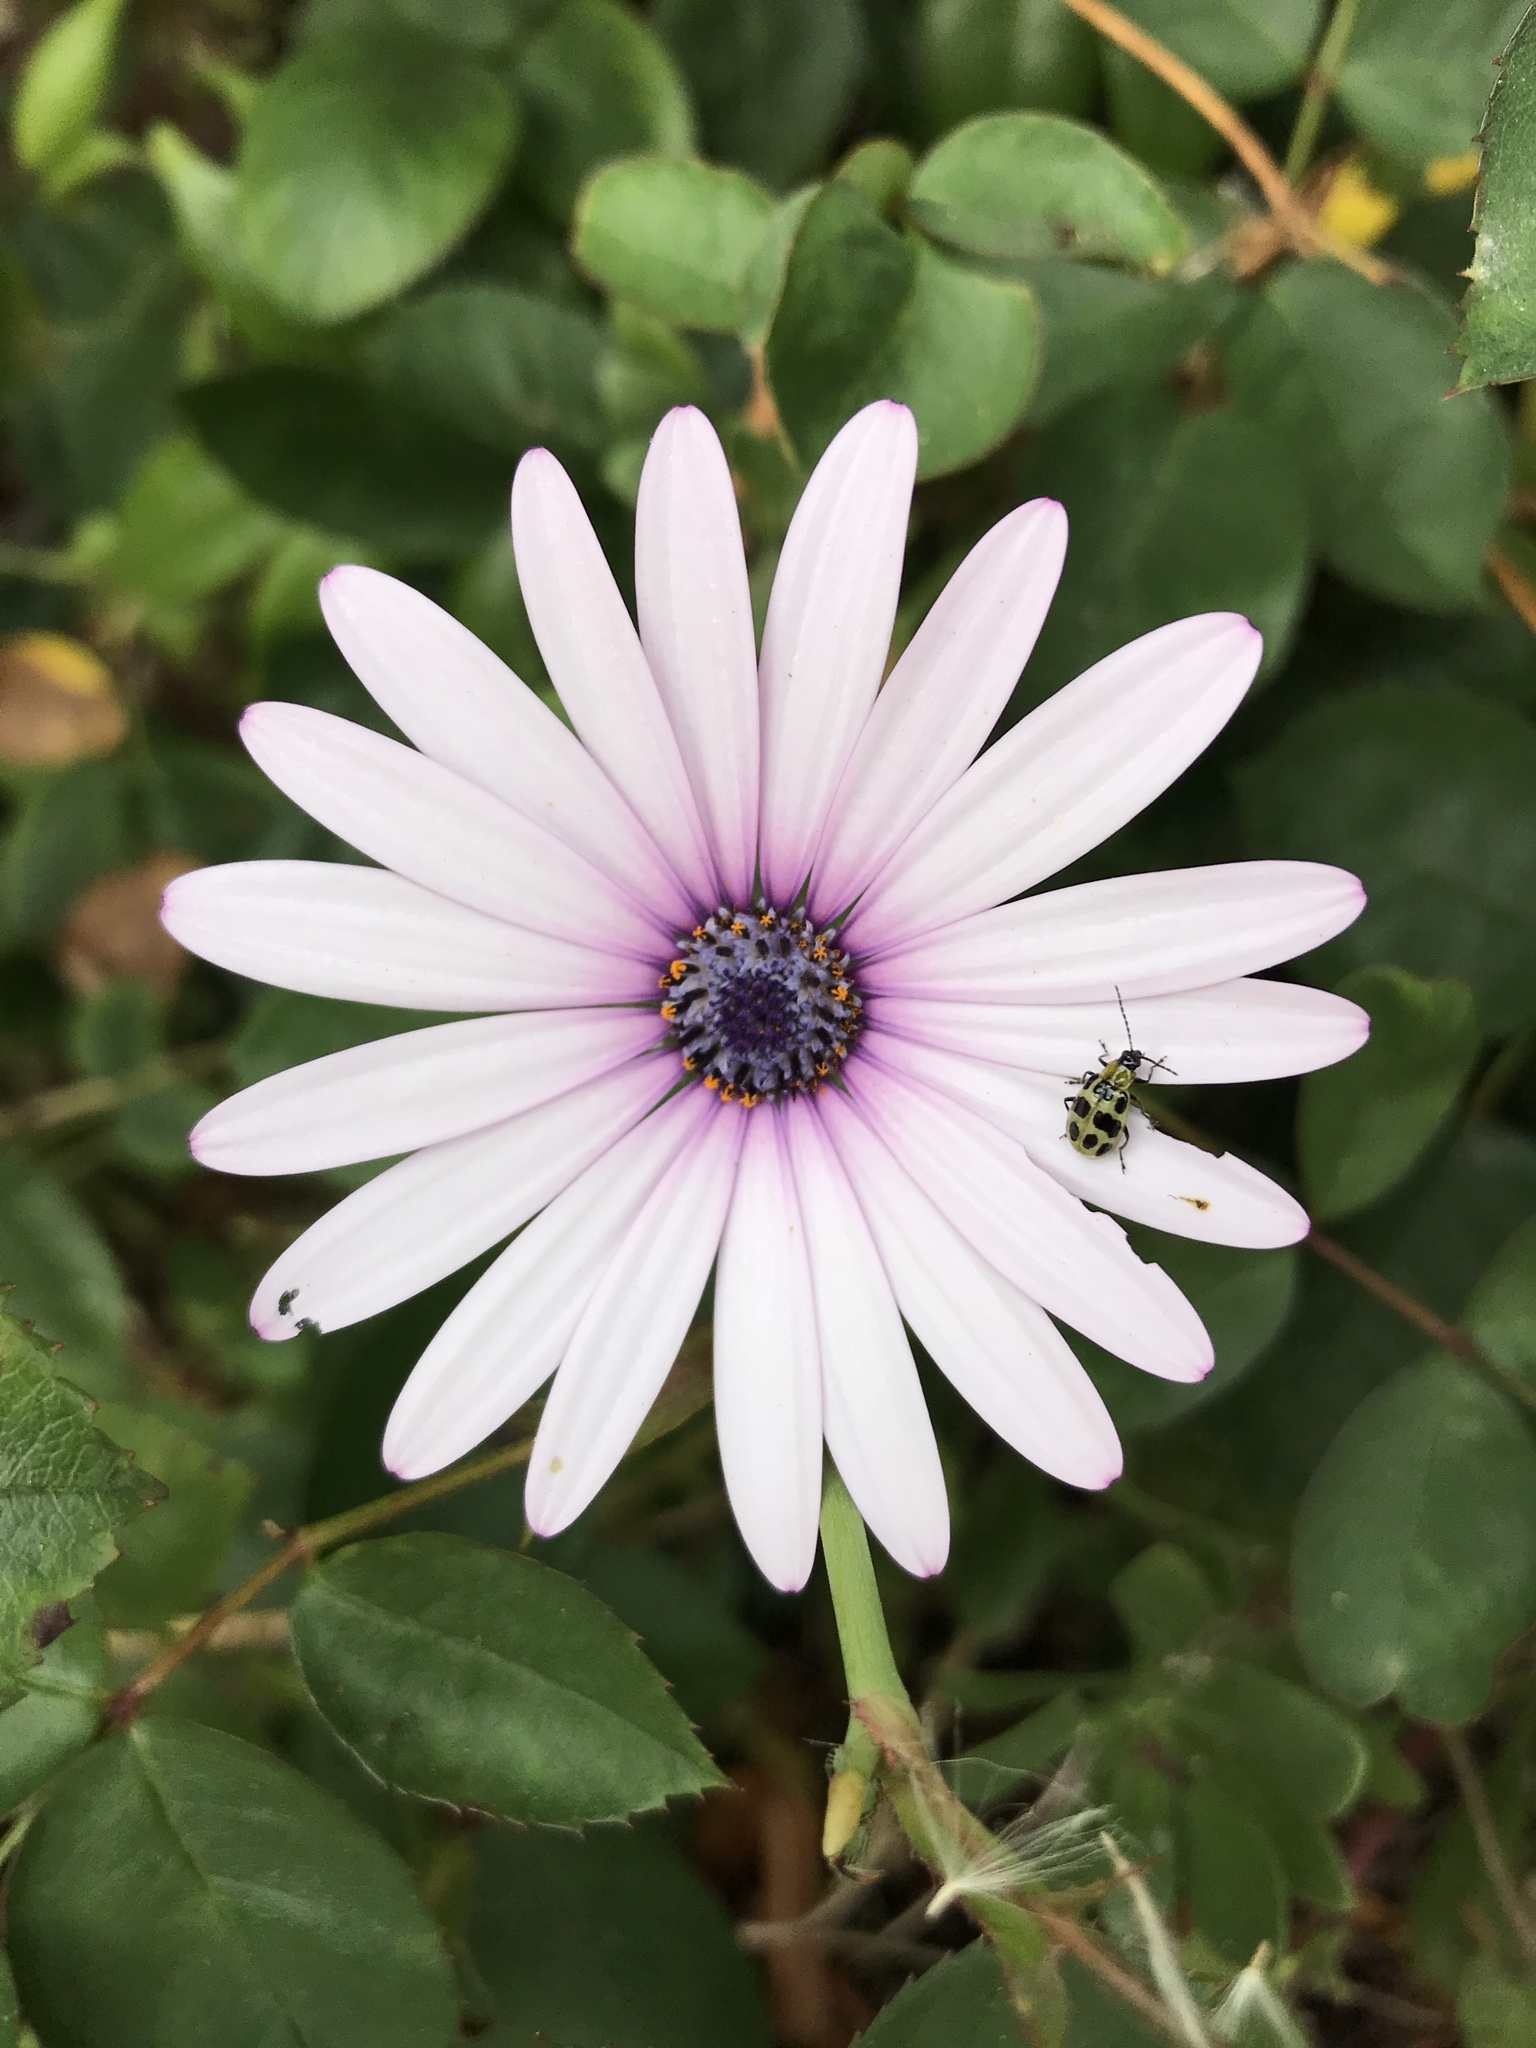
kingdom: Animalia
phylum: Arthropoda
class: Insecta
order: Coleoptera
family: Chrysomelidae
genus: Diabrotica
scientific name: Diabrotica undecimpunctata
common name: Spotted cucumber beetle
